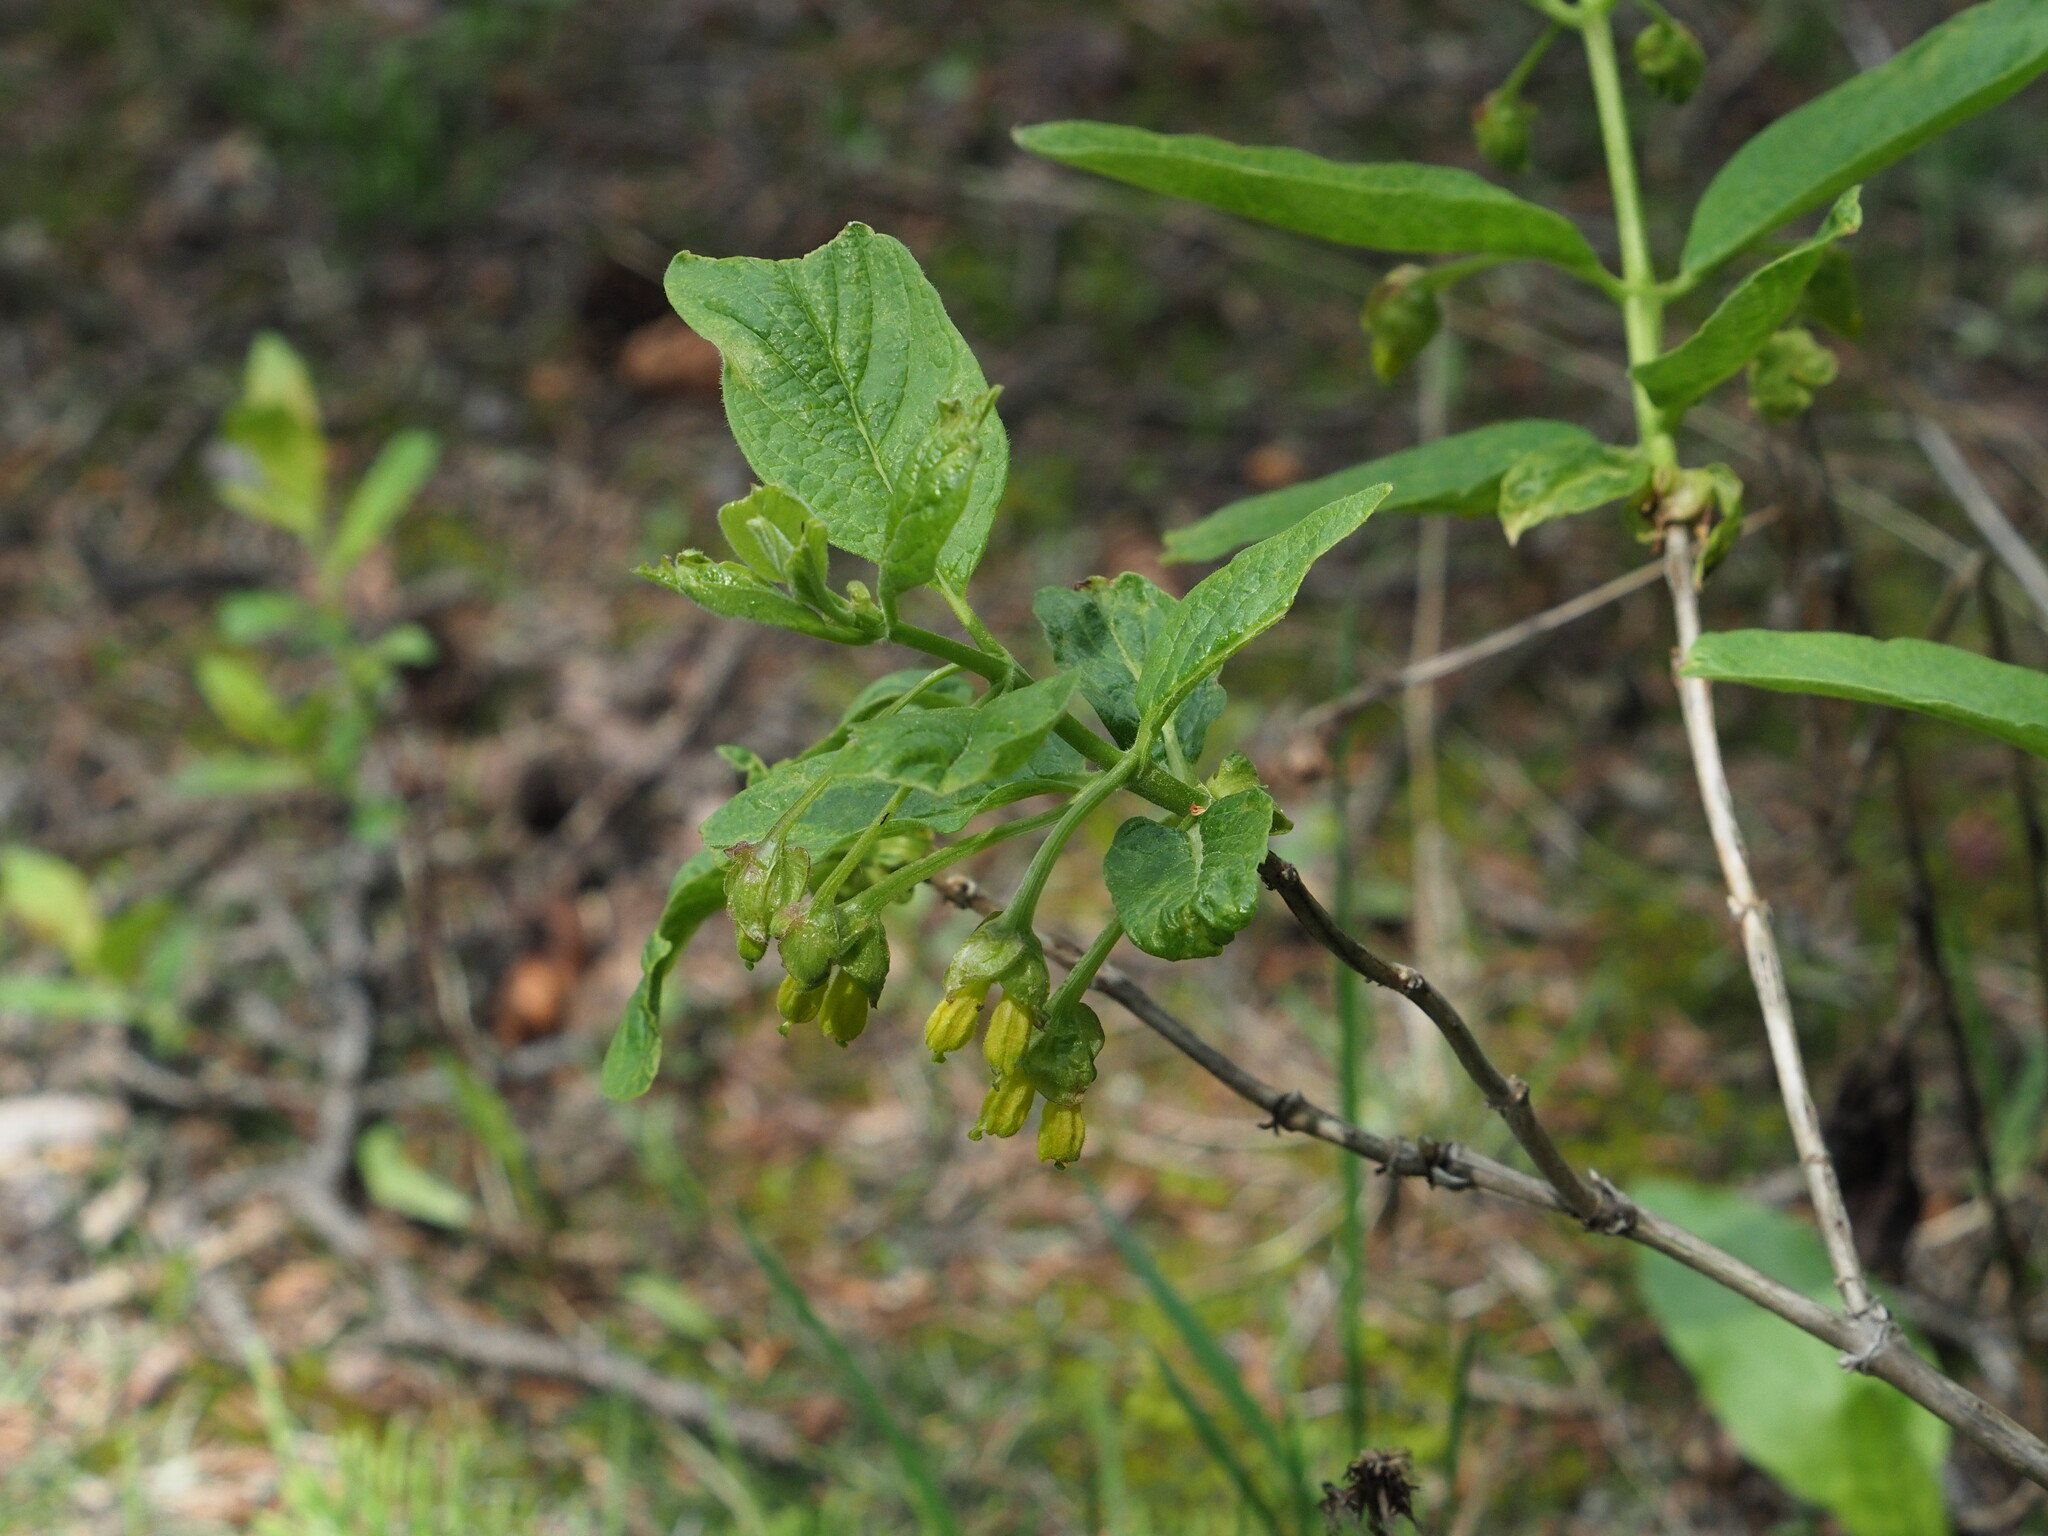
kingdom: Plantae
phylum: Tracheophyta
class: Magnoliopsida
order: Dipsacales
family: Caprifoliaceae
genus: Lonicera
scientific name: Lonicera involucrata
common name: Californian honeysuckle
